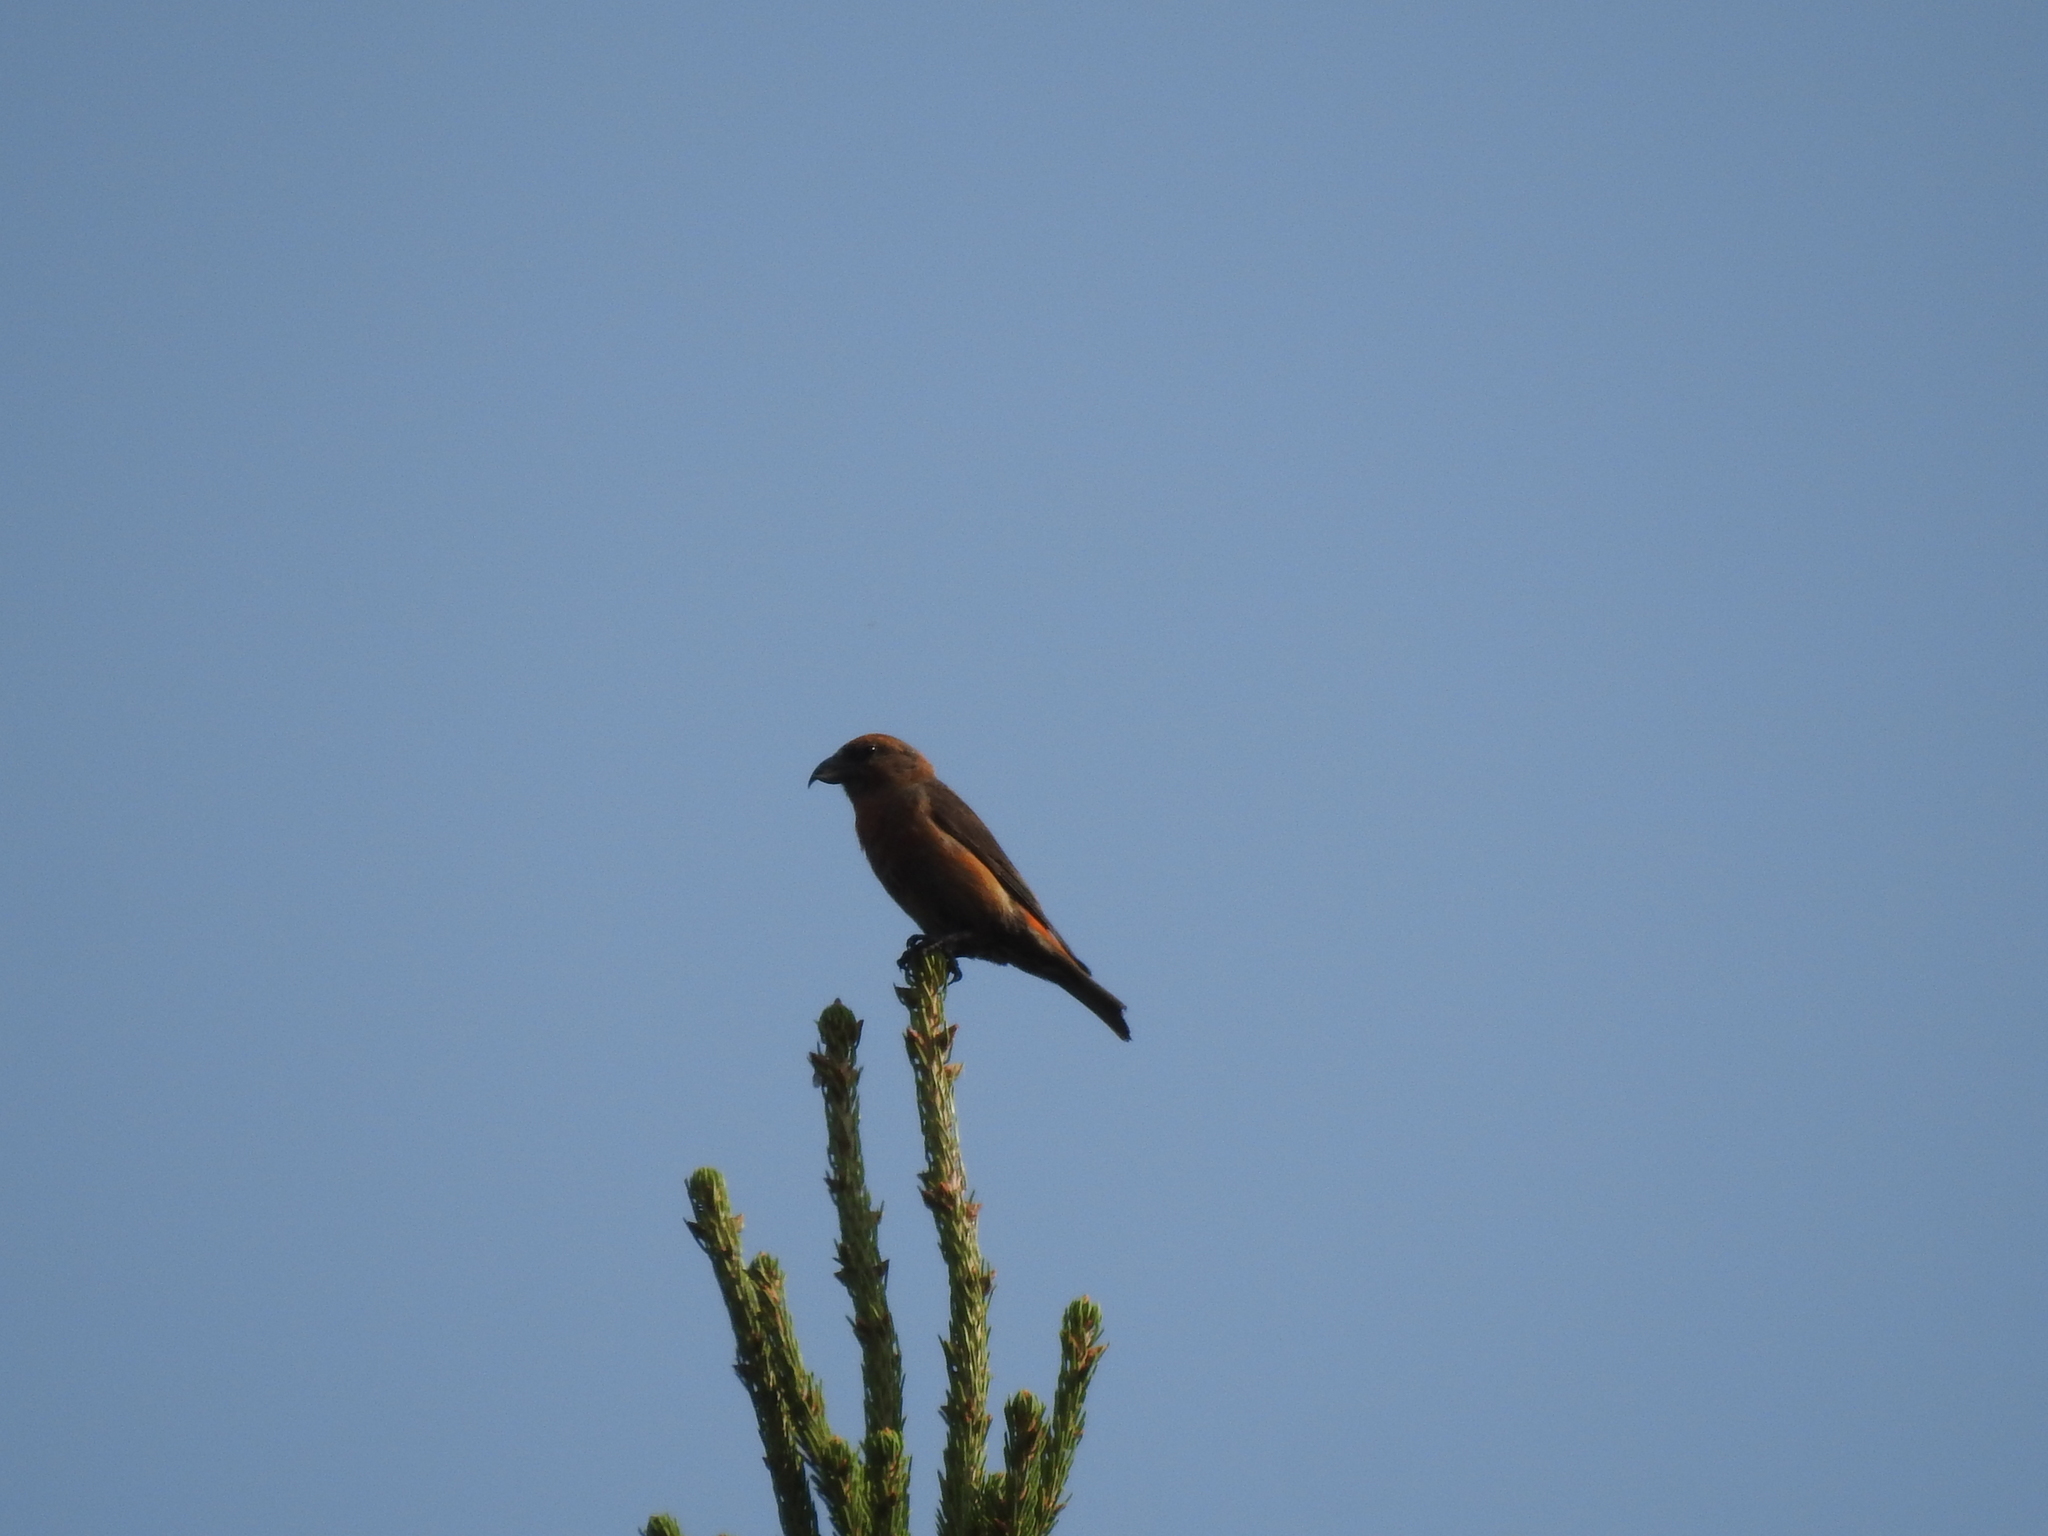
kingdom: Animalia
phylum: Chordata
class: Aves
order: Passeriformes
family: Fringillidae
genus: Loxia
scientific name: Loxia curvirostra
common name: Red crossbill
